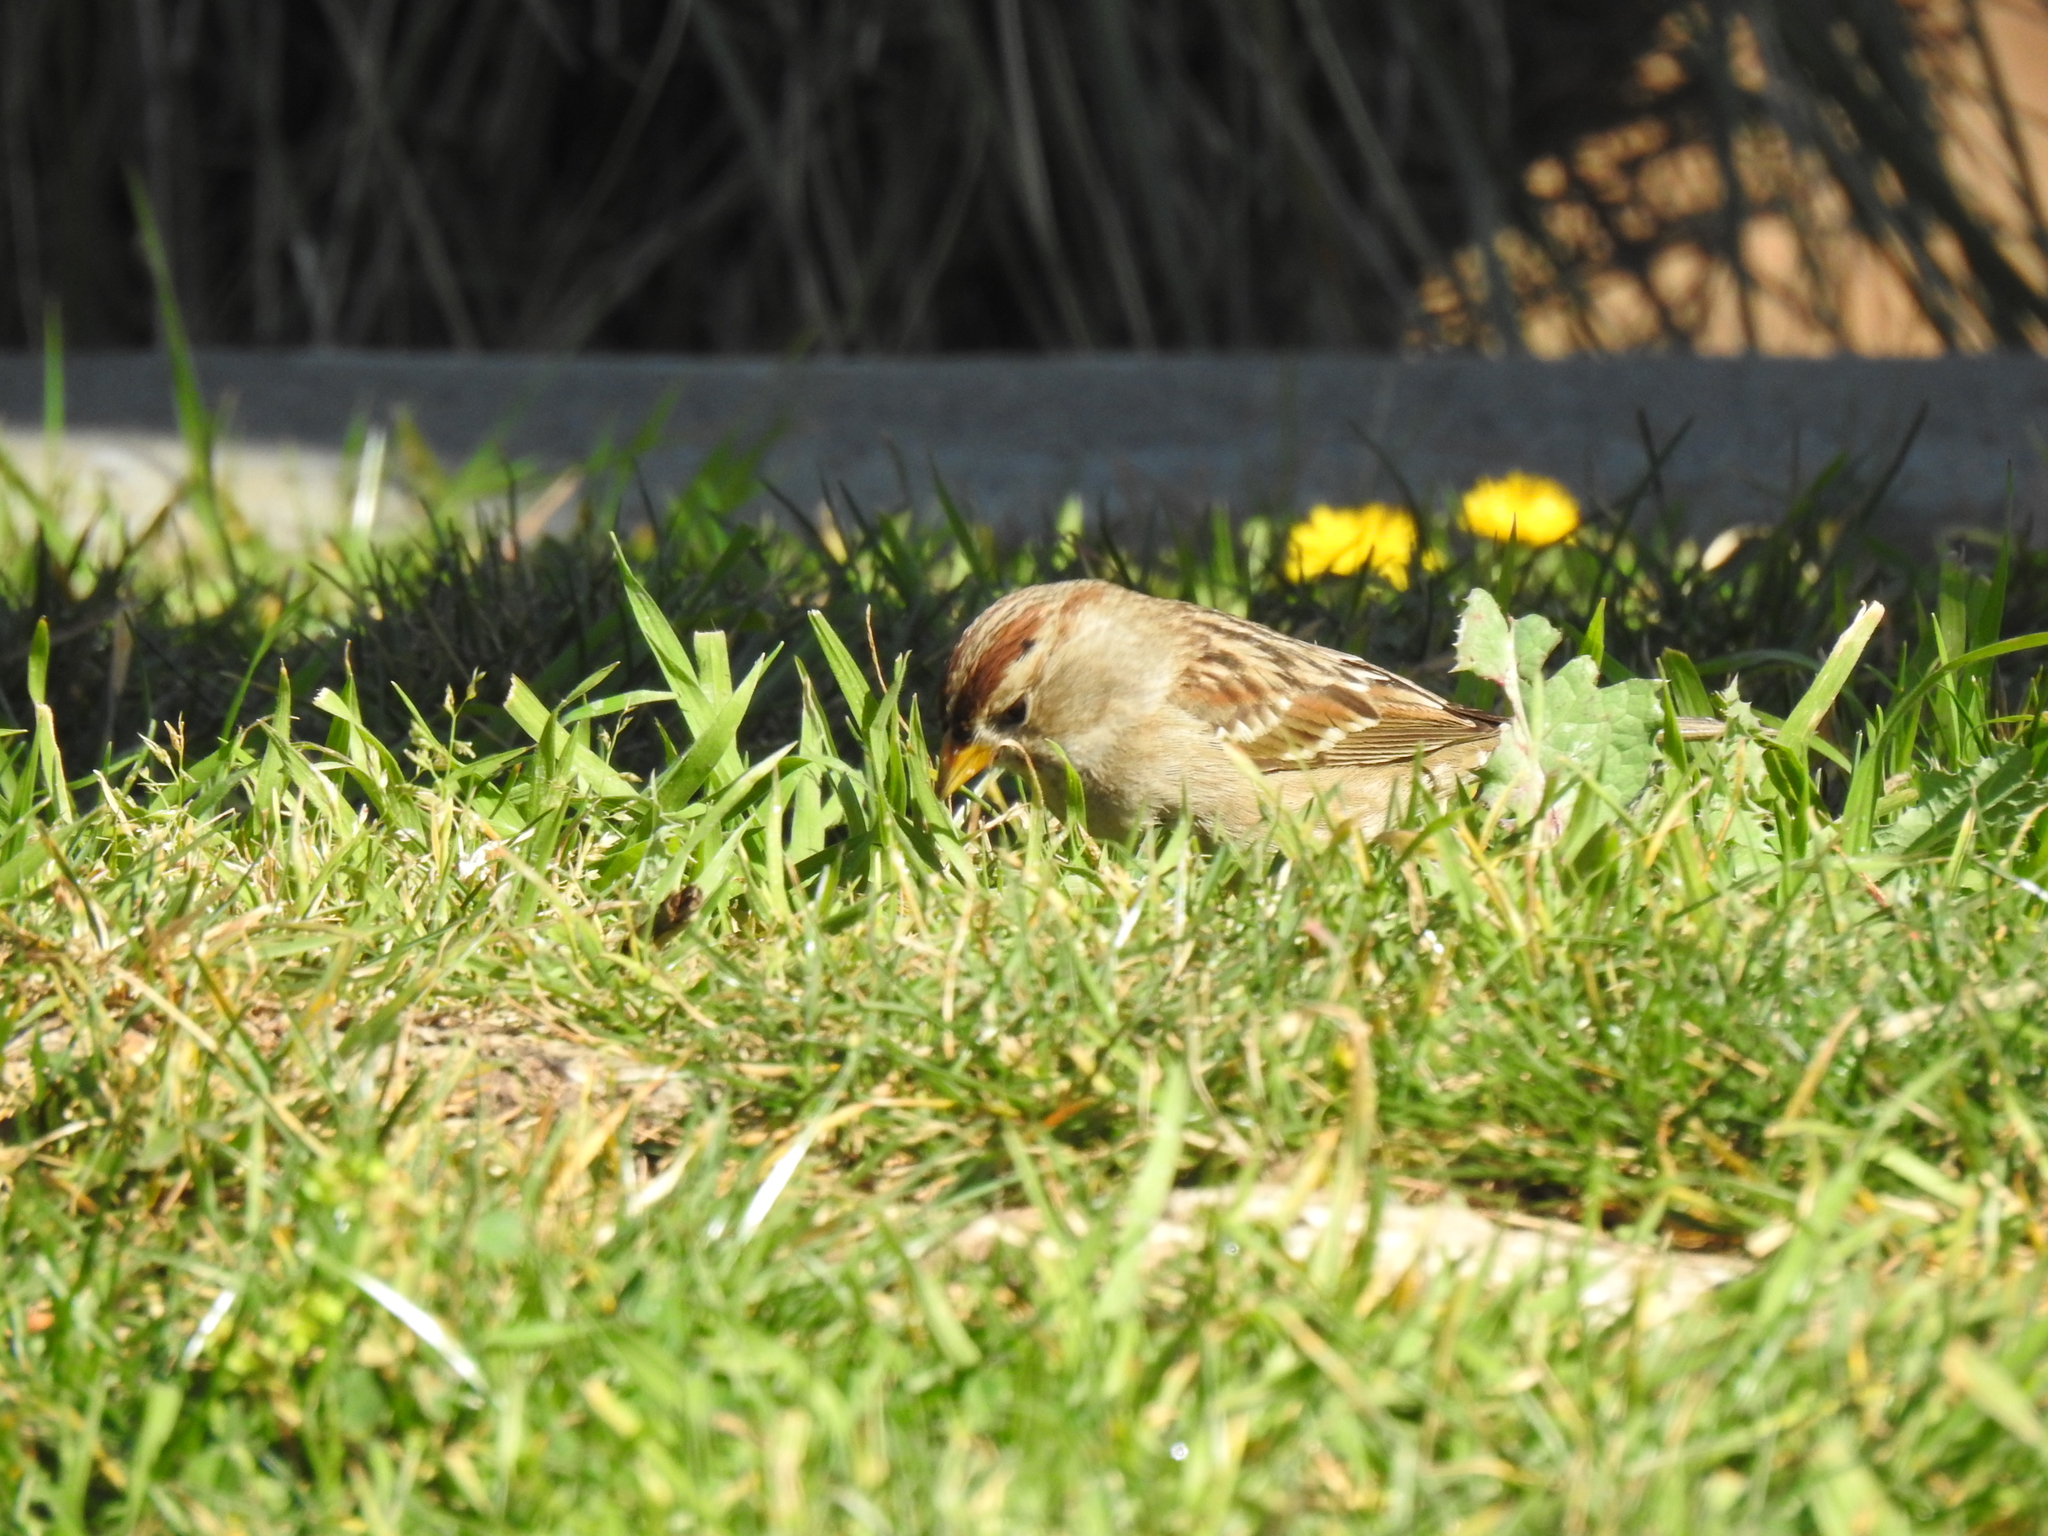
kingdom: Animalia
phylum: Chordata
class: Aves
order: Passeriformes
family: Passerellidae
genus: Zonotrichia
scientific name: Zonotrichia leucophrys
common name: White-crowned sparrow
